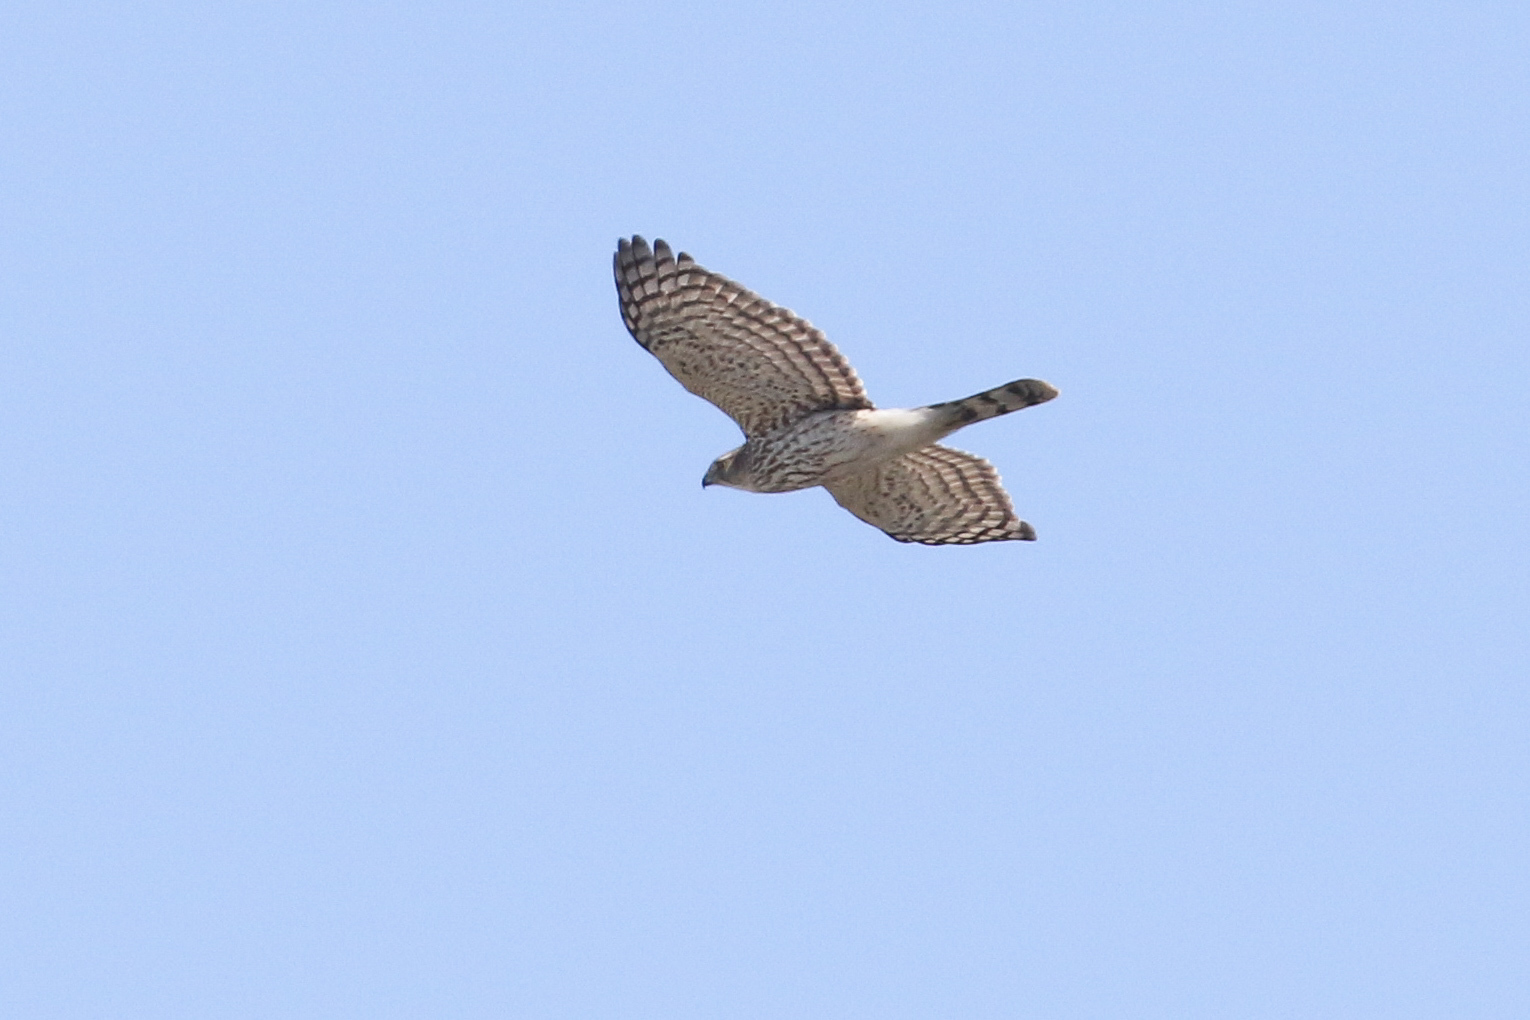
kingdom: Animalia
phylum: Chordata
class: Aves
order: Accipitriformes
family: Accipitridae
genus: Accipiter
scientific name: Accipiter cooperii
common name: Cooper's hawk
